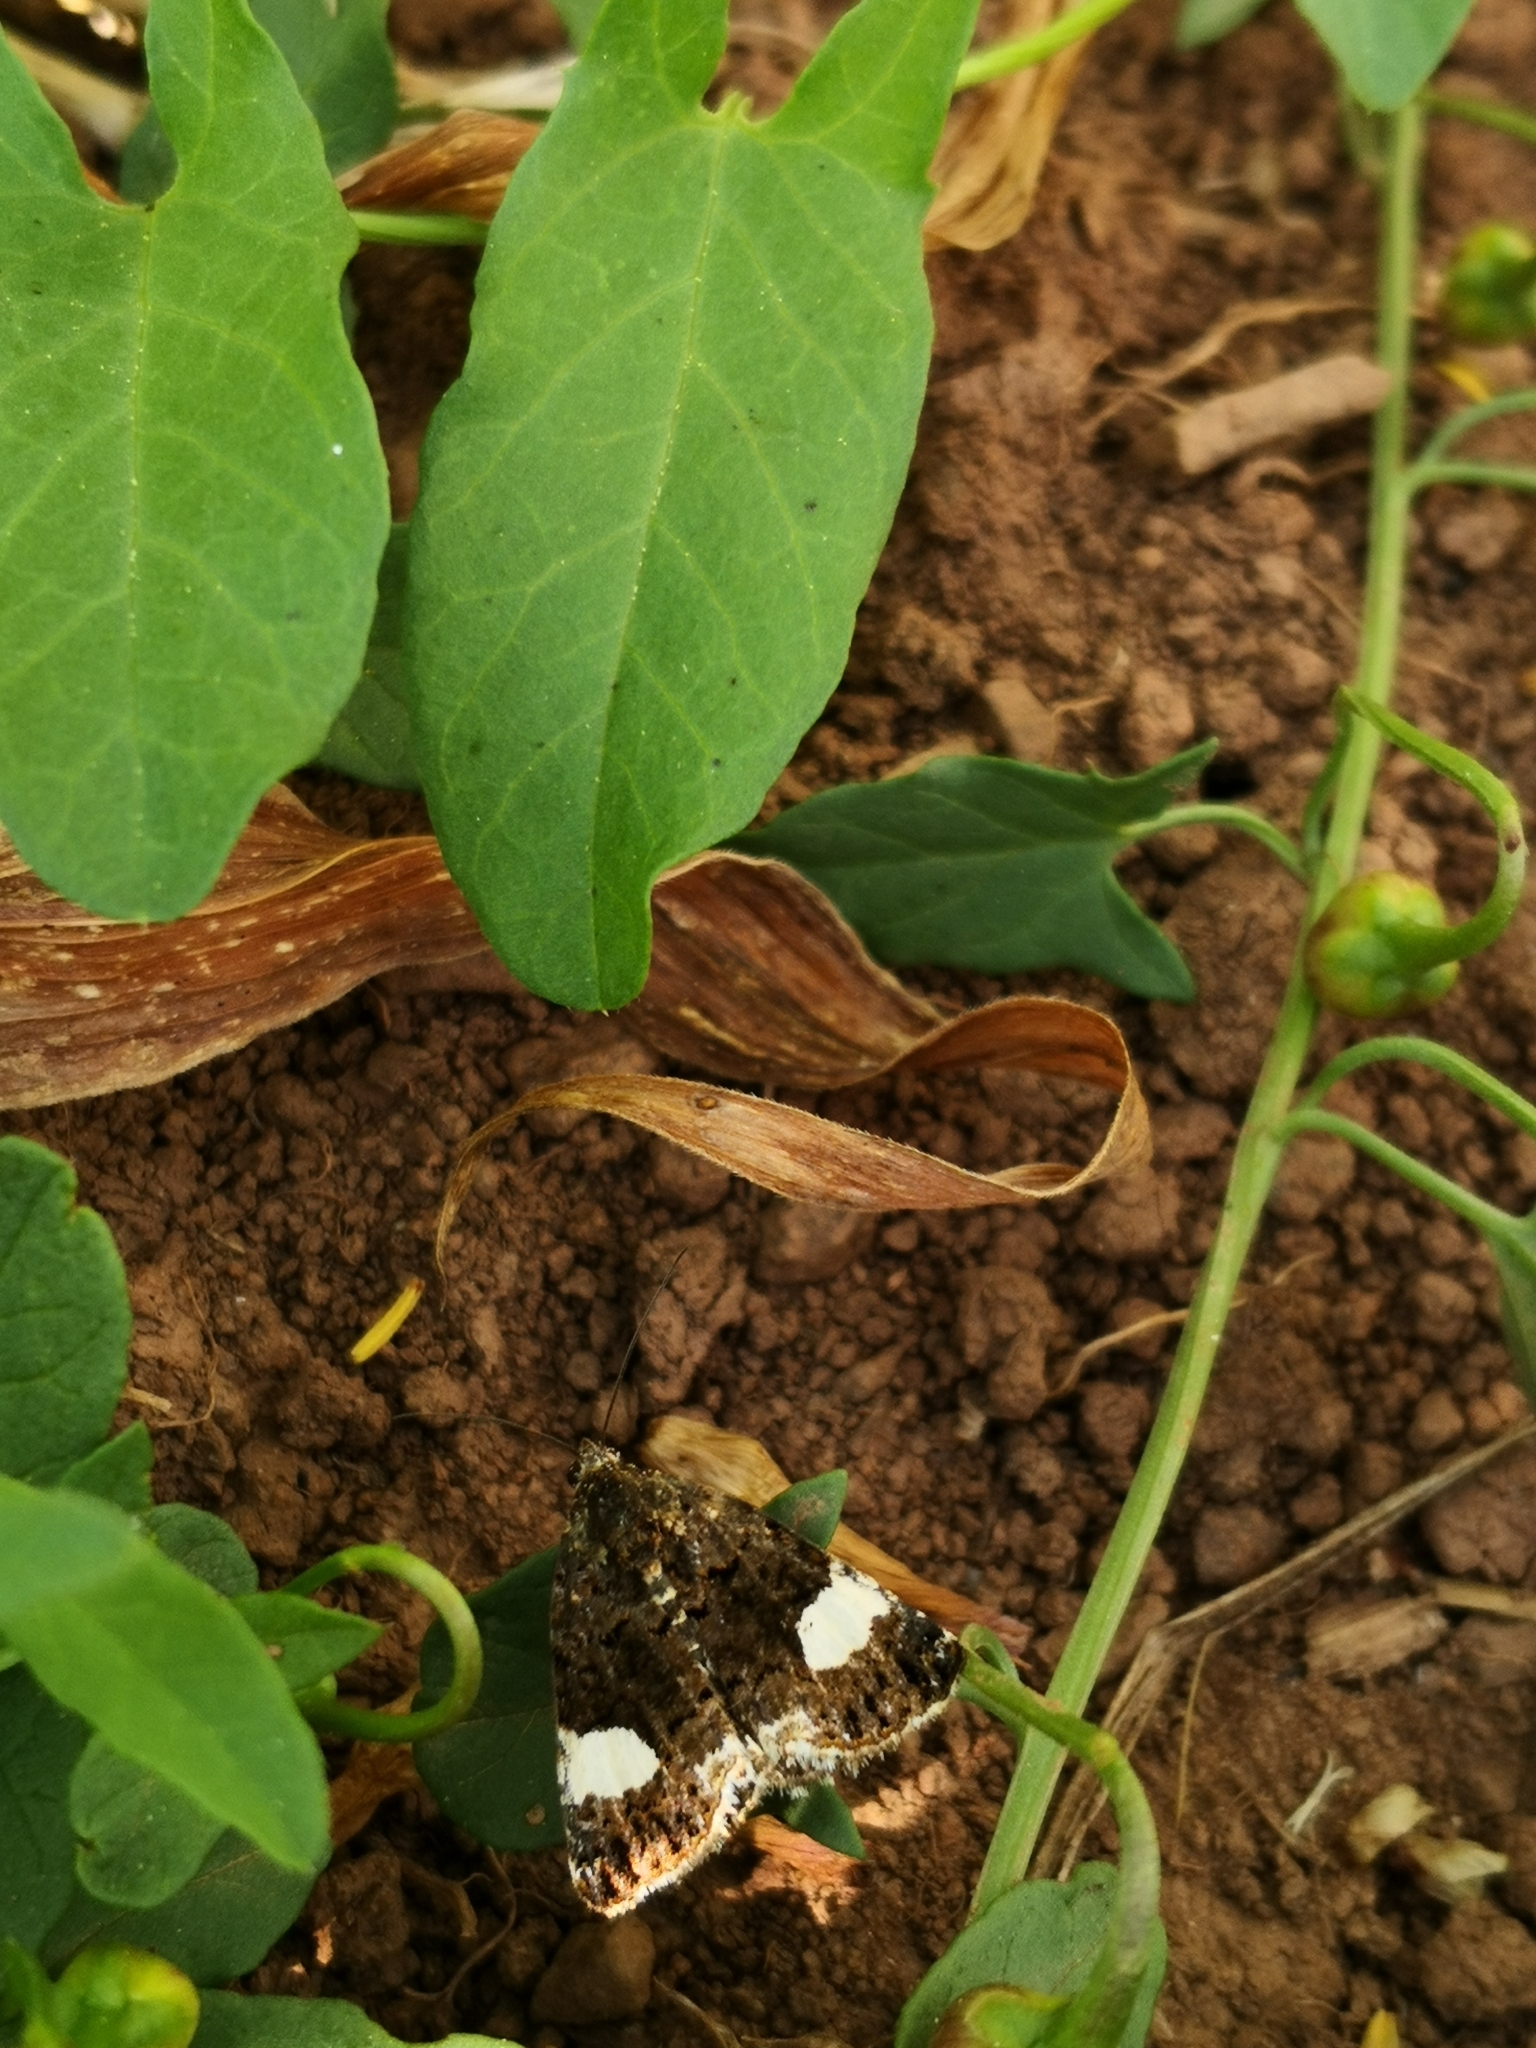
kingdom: Animalia
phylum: Arthropoda
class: Insecta
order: Lepidoptera
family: Erebidae
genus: Tyta
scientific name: Tyta luctuosa
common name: Four-spotted
